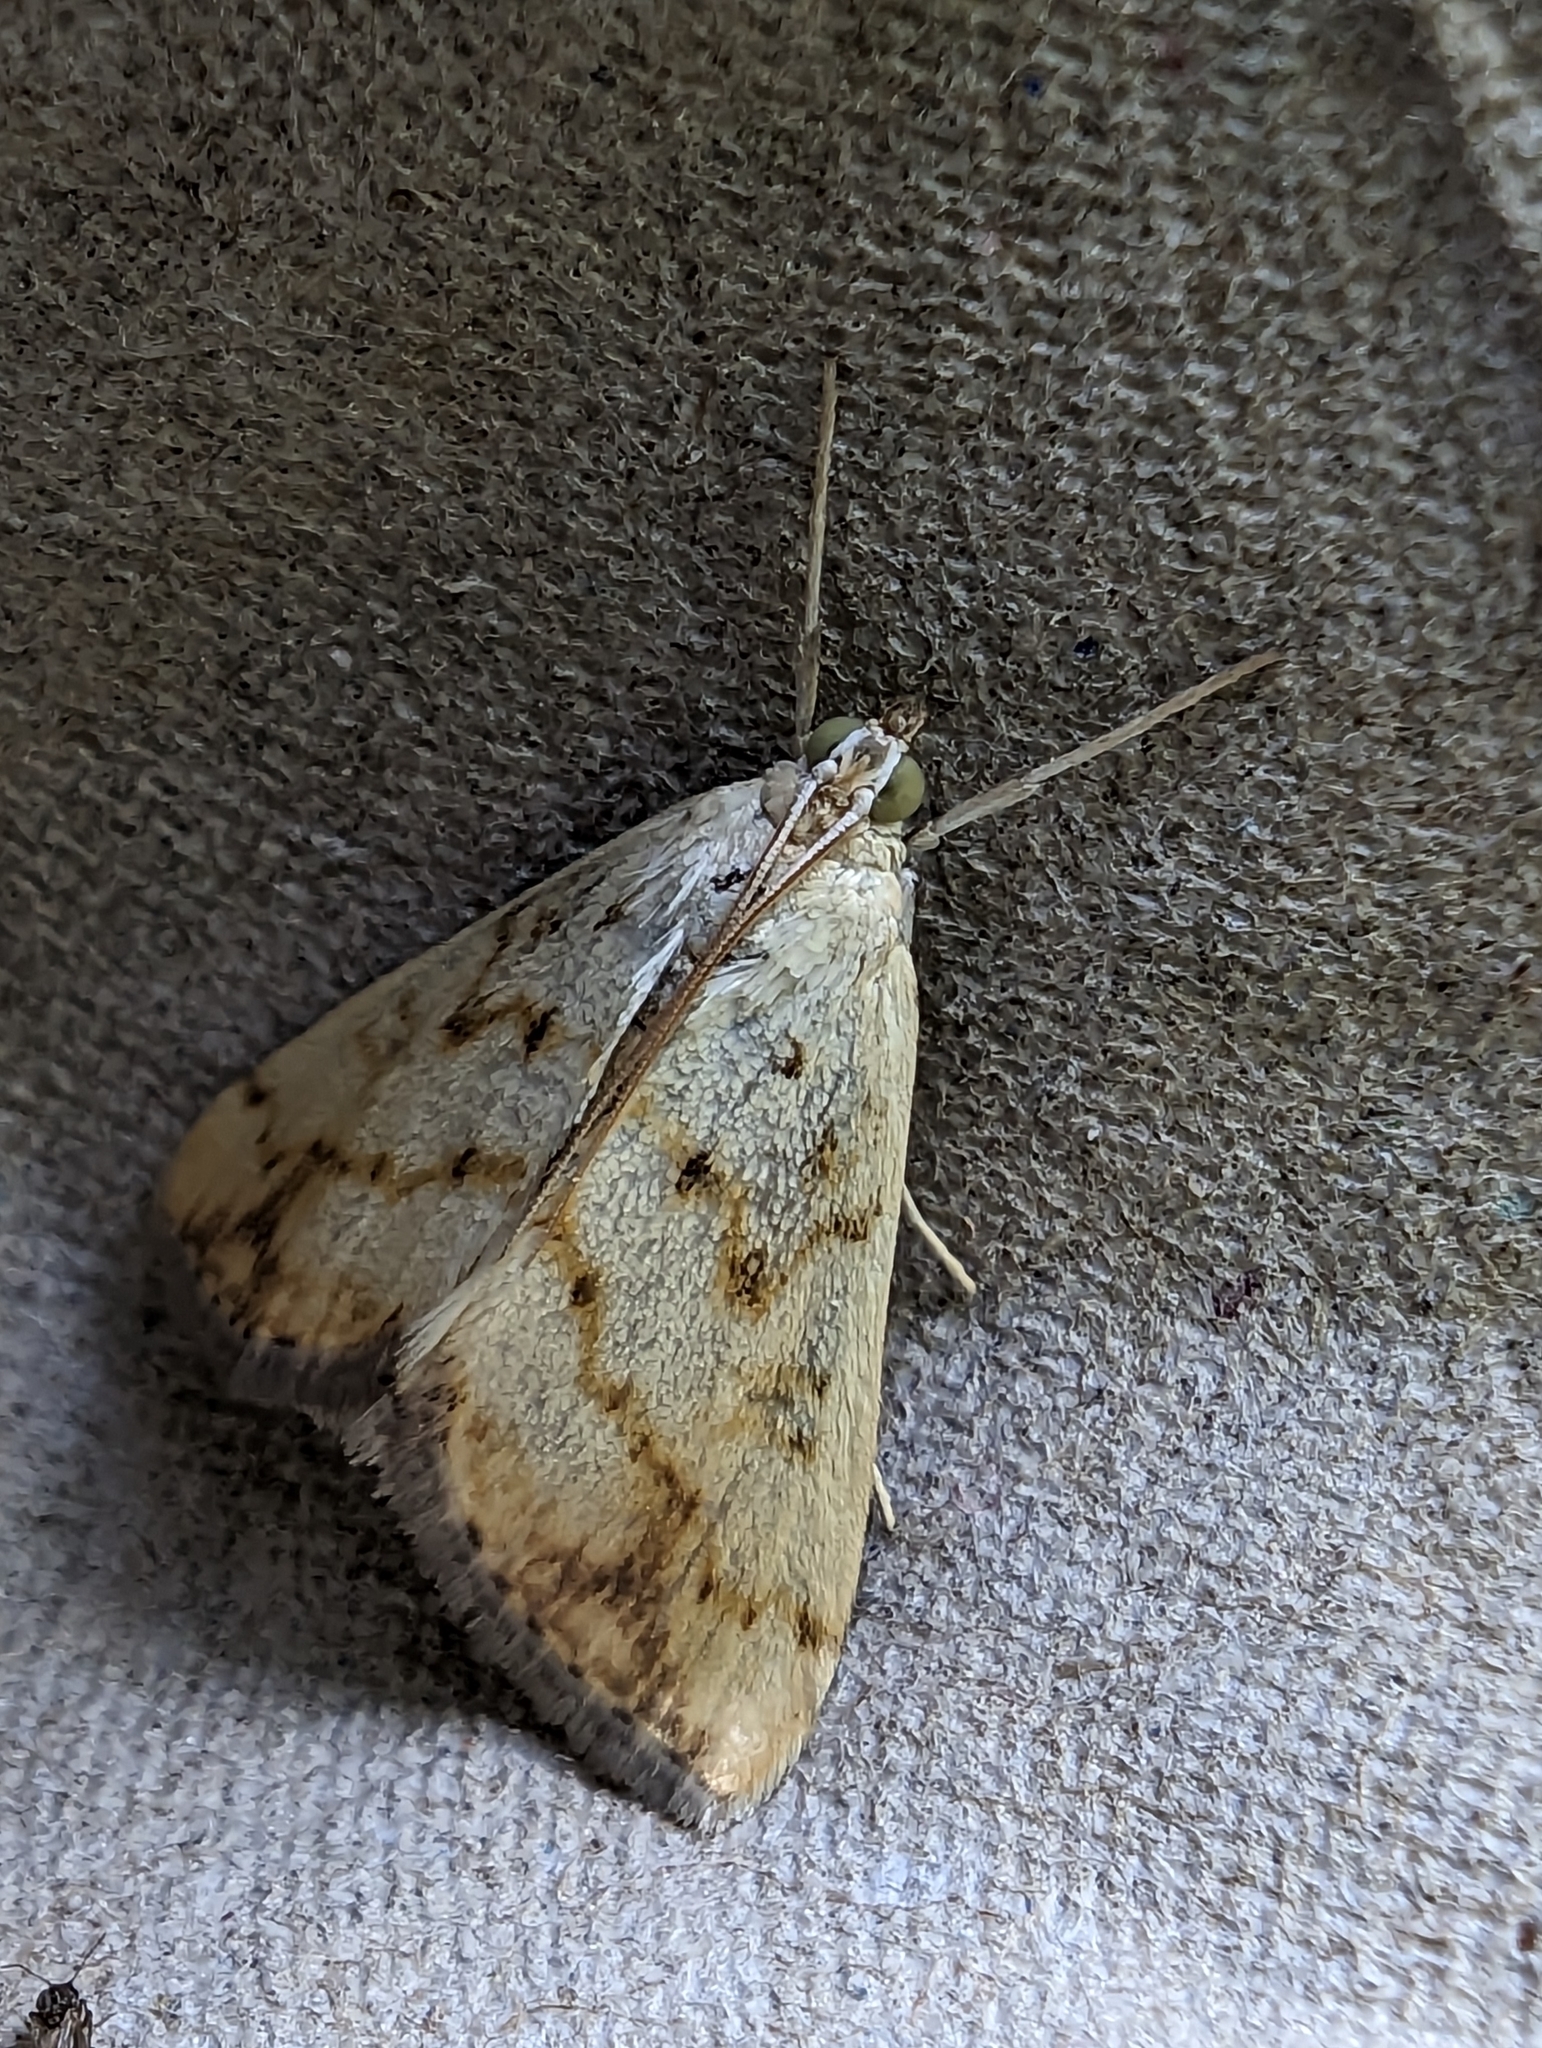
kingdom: Animalia
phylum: Arthropoda
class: Insecta
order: Lepidoptera
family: Crambidae
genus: Evergestis
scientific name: Evergestis extimalis
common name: Marbled yellow pearl
